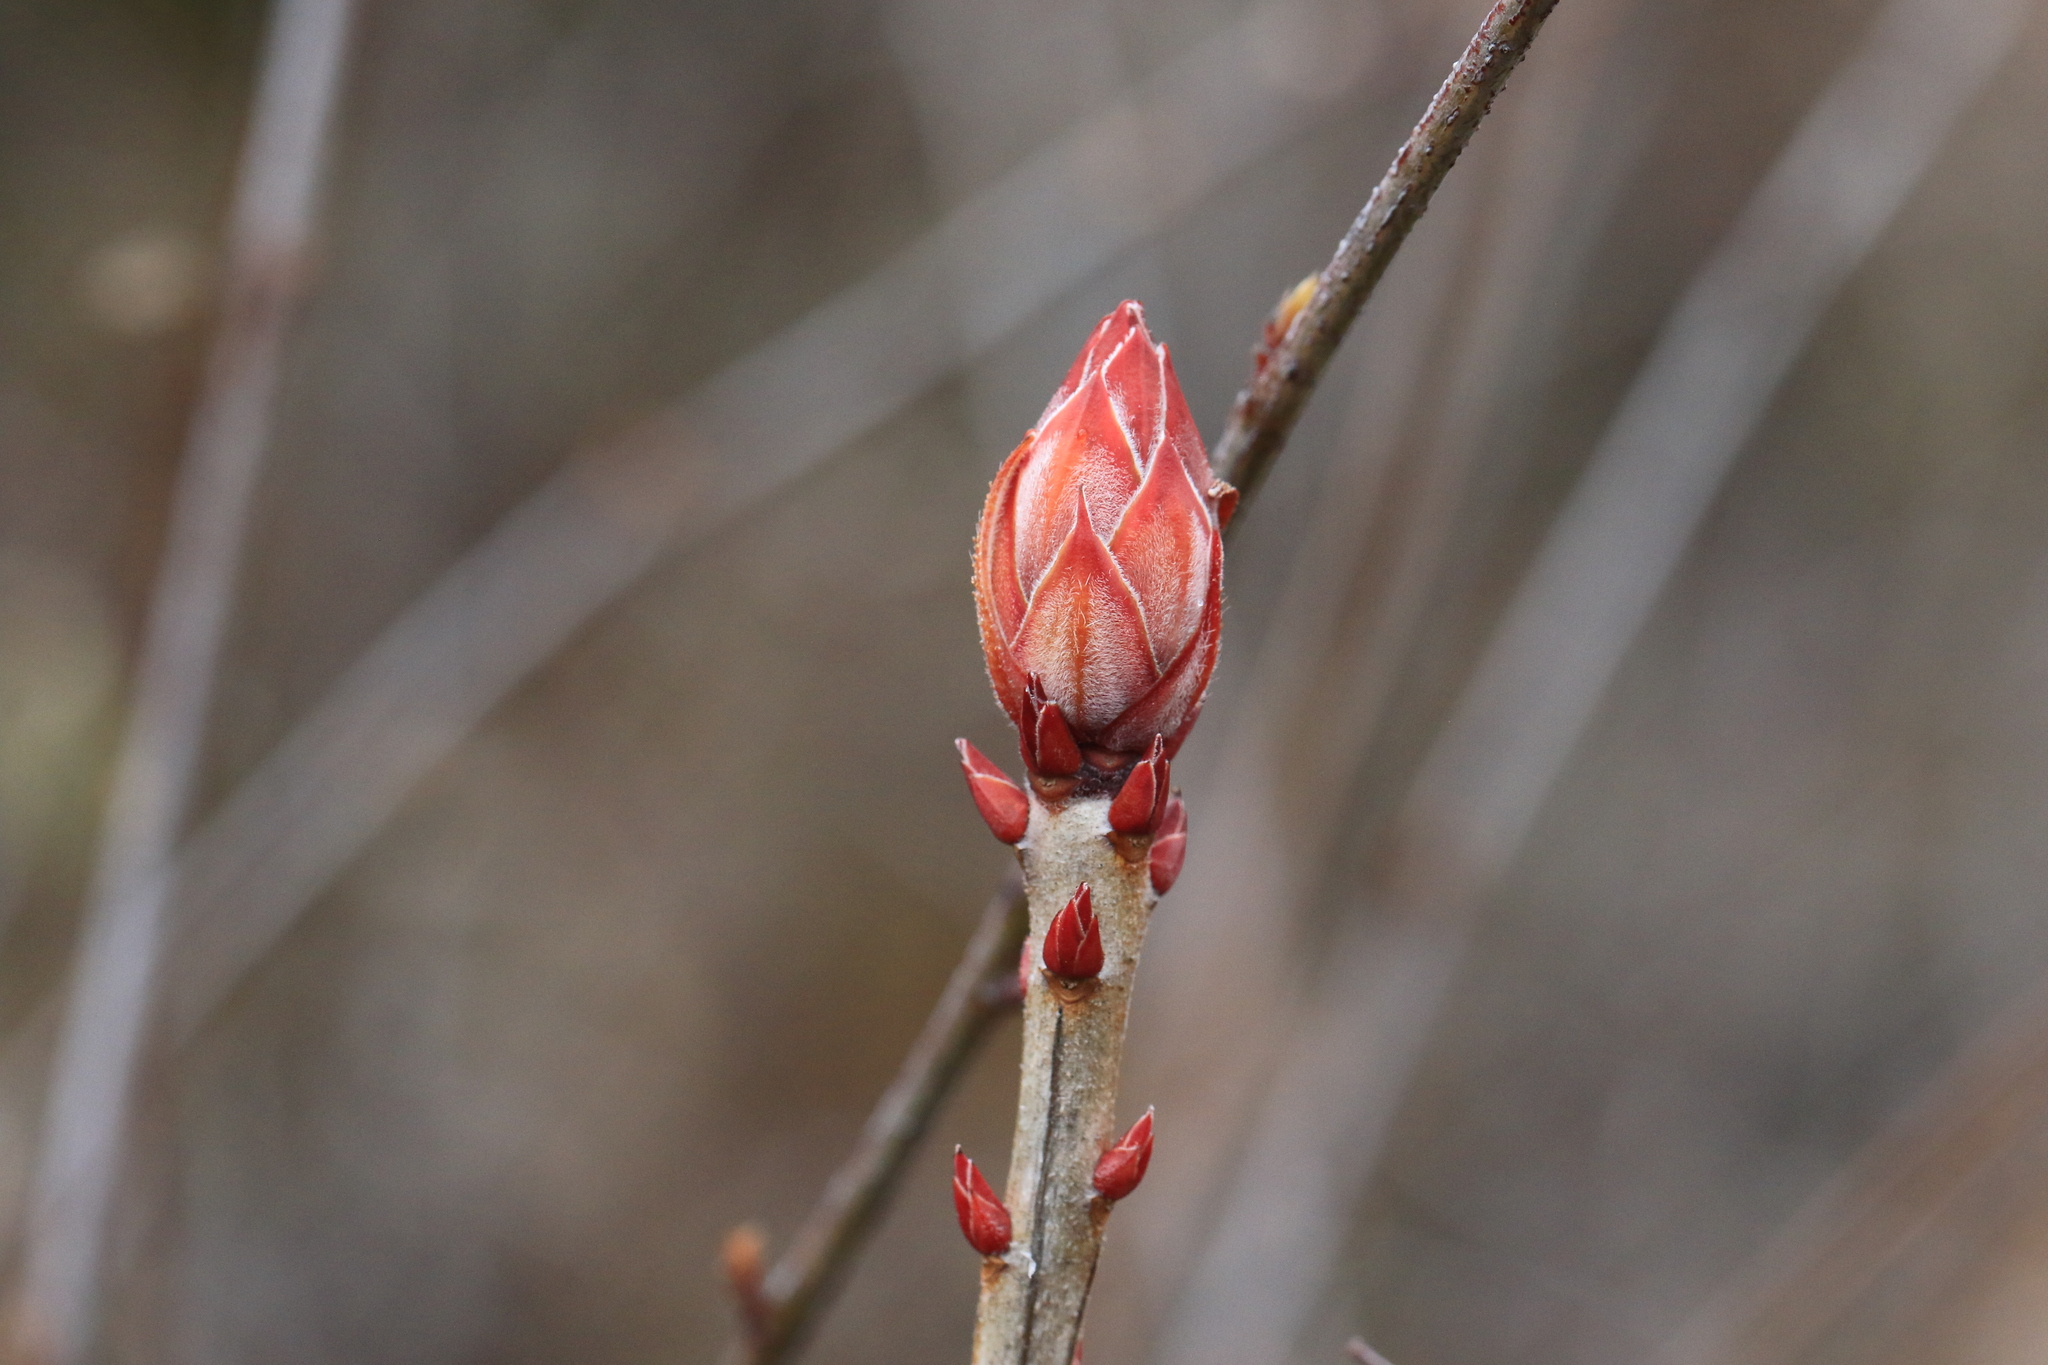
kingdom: Plantae
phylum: Tracheophyta
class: Magnoliopsida
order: Ericales
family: Ericaceae
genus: Rhododendron
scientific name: Rhododendron occidentale
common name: Western azalea
